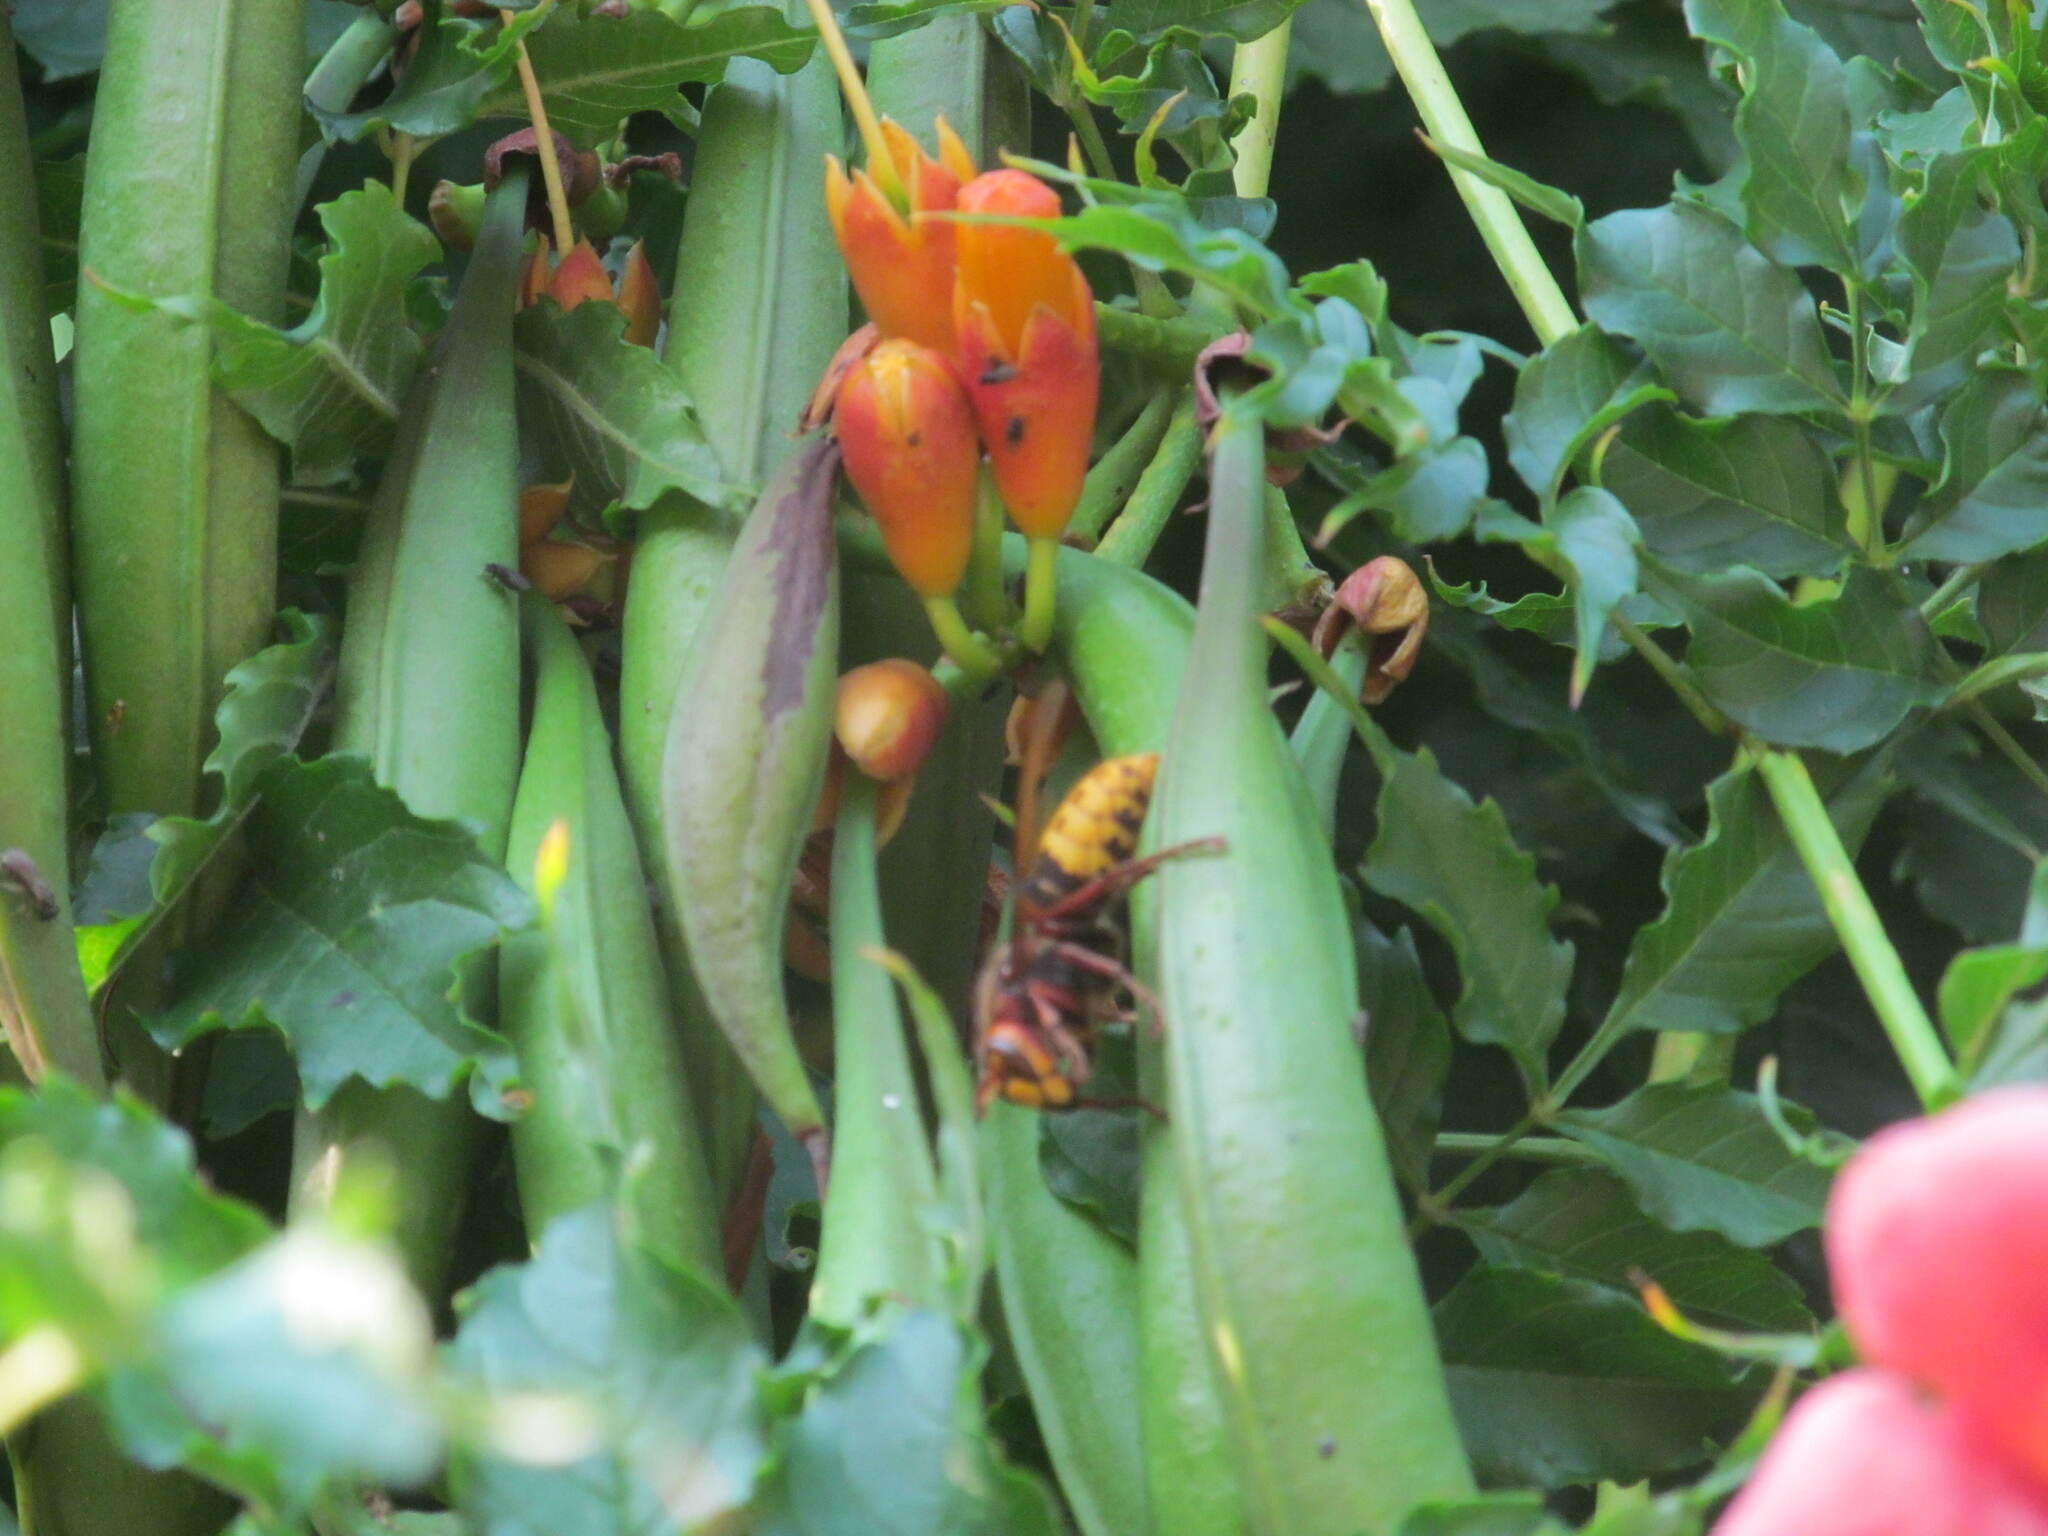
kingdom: Animalia
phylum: Arthropoda
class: Insecta
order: Hymenoptera
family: Vespidae
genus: Vespa
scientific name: Vespa crabro
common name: Hornet
